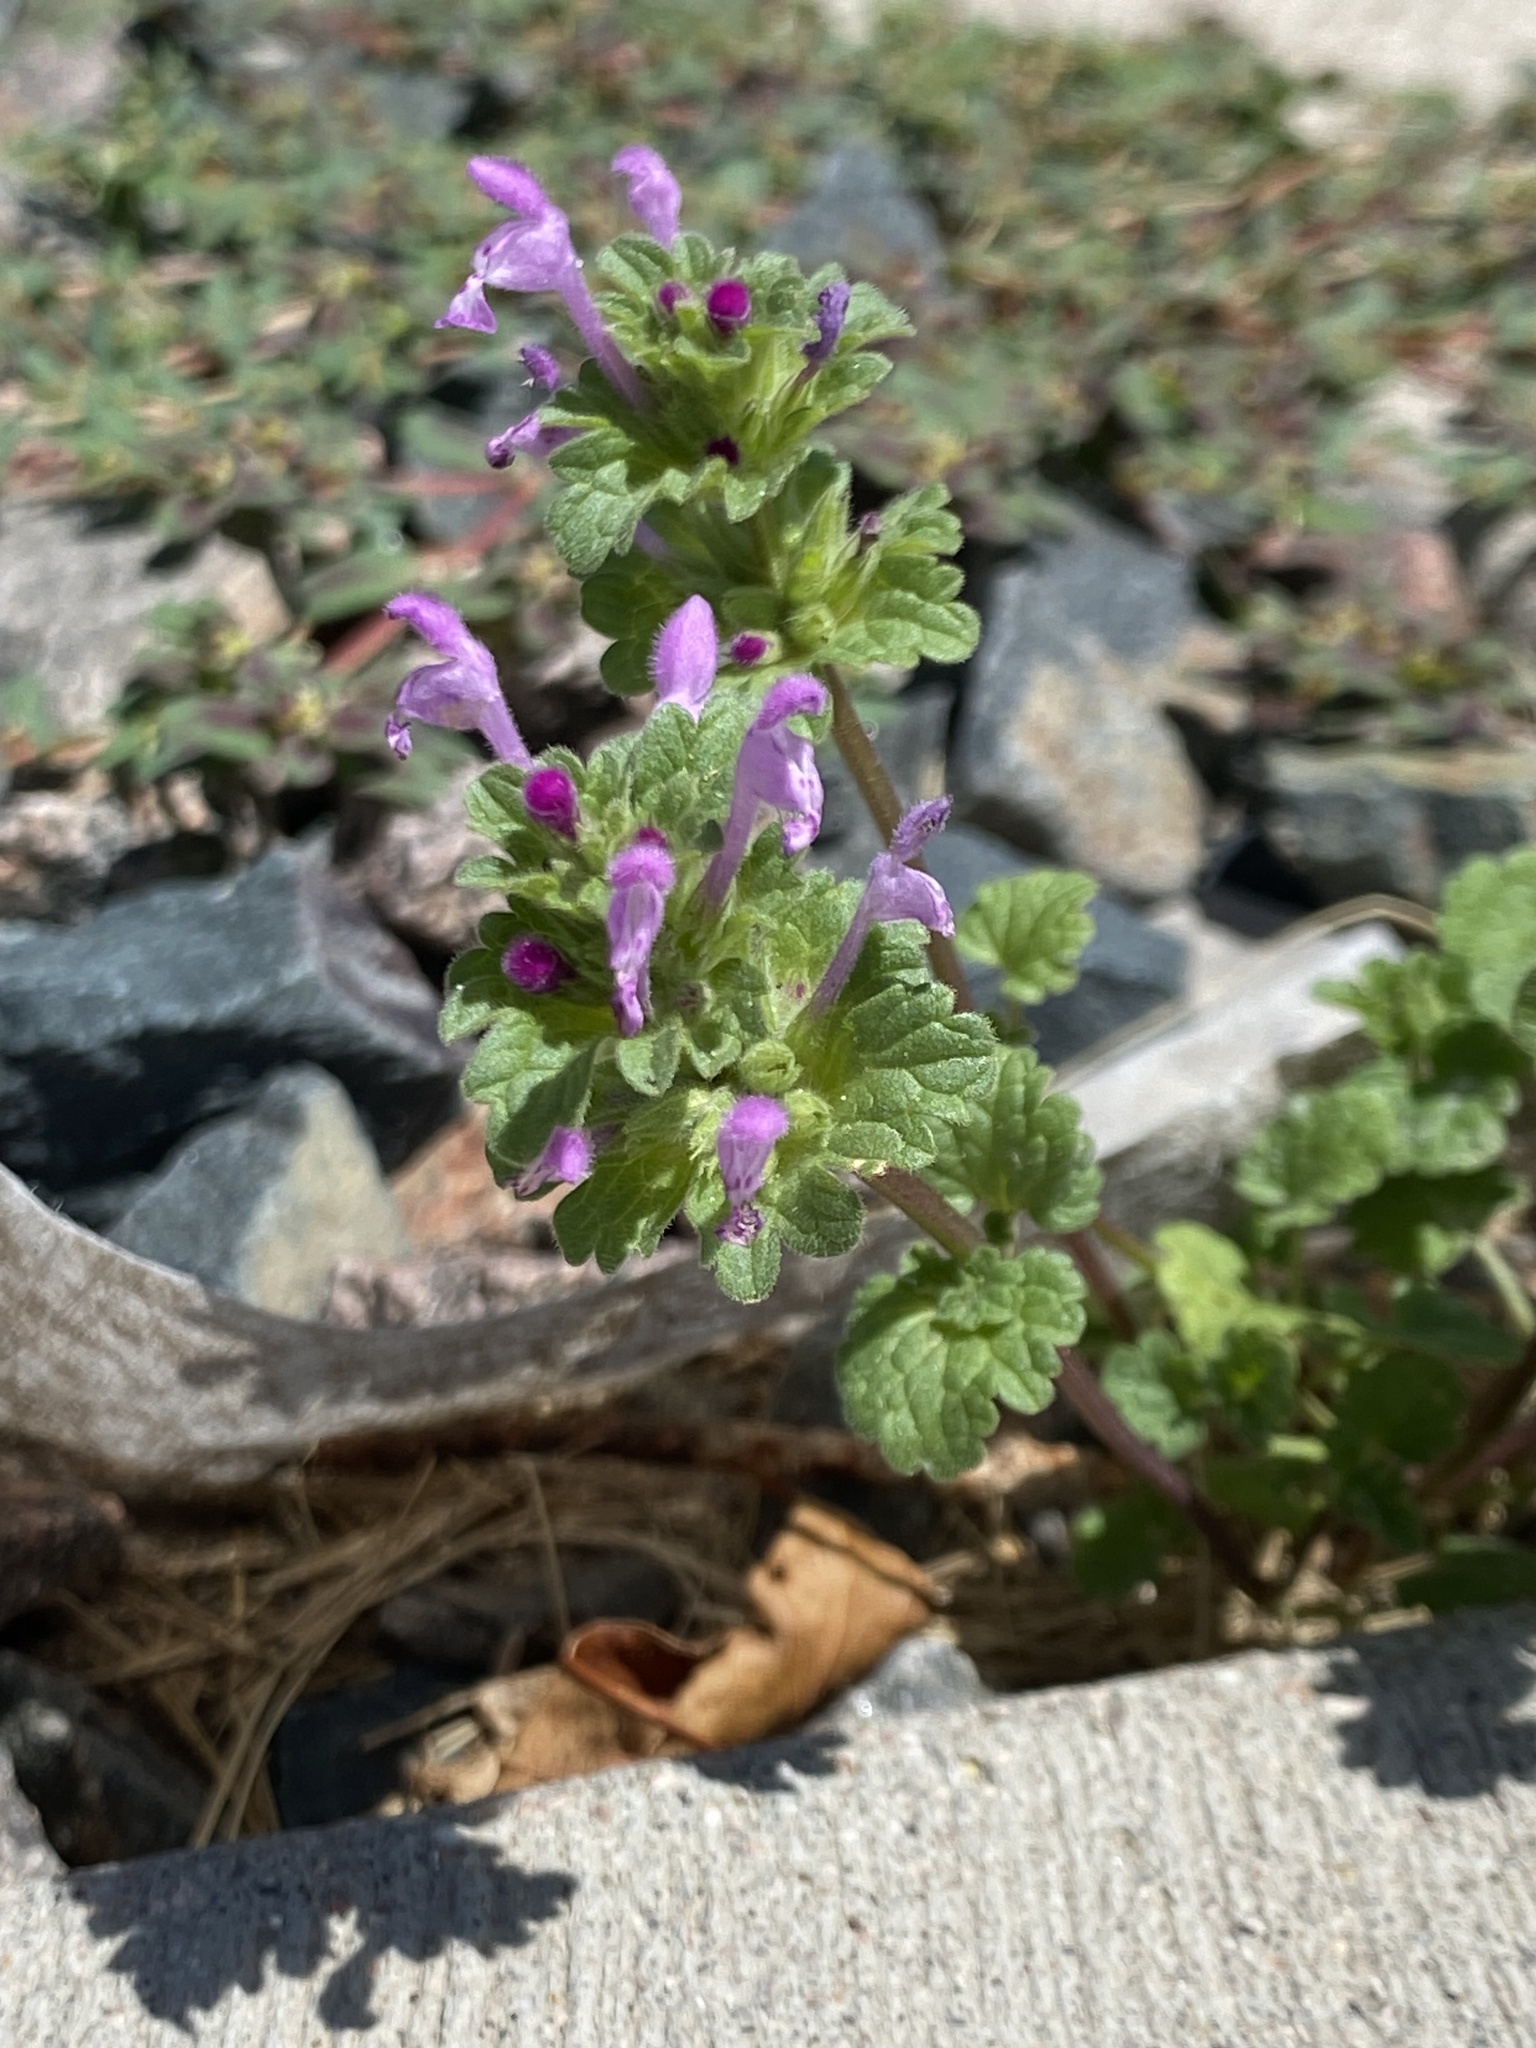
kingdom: Plantae
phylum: Tracheophyta
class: Magnoliopsida
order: Lamiales
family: Lamiaceae
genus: Lamium
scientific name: Lamium amplexicaule
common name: Henbit dead-nettle
